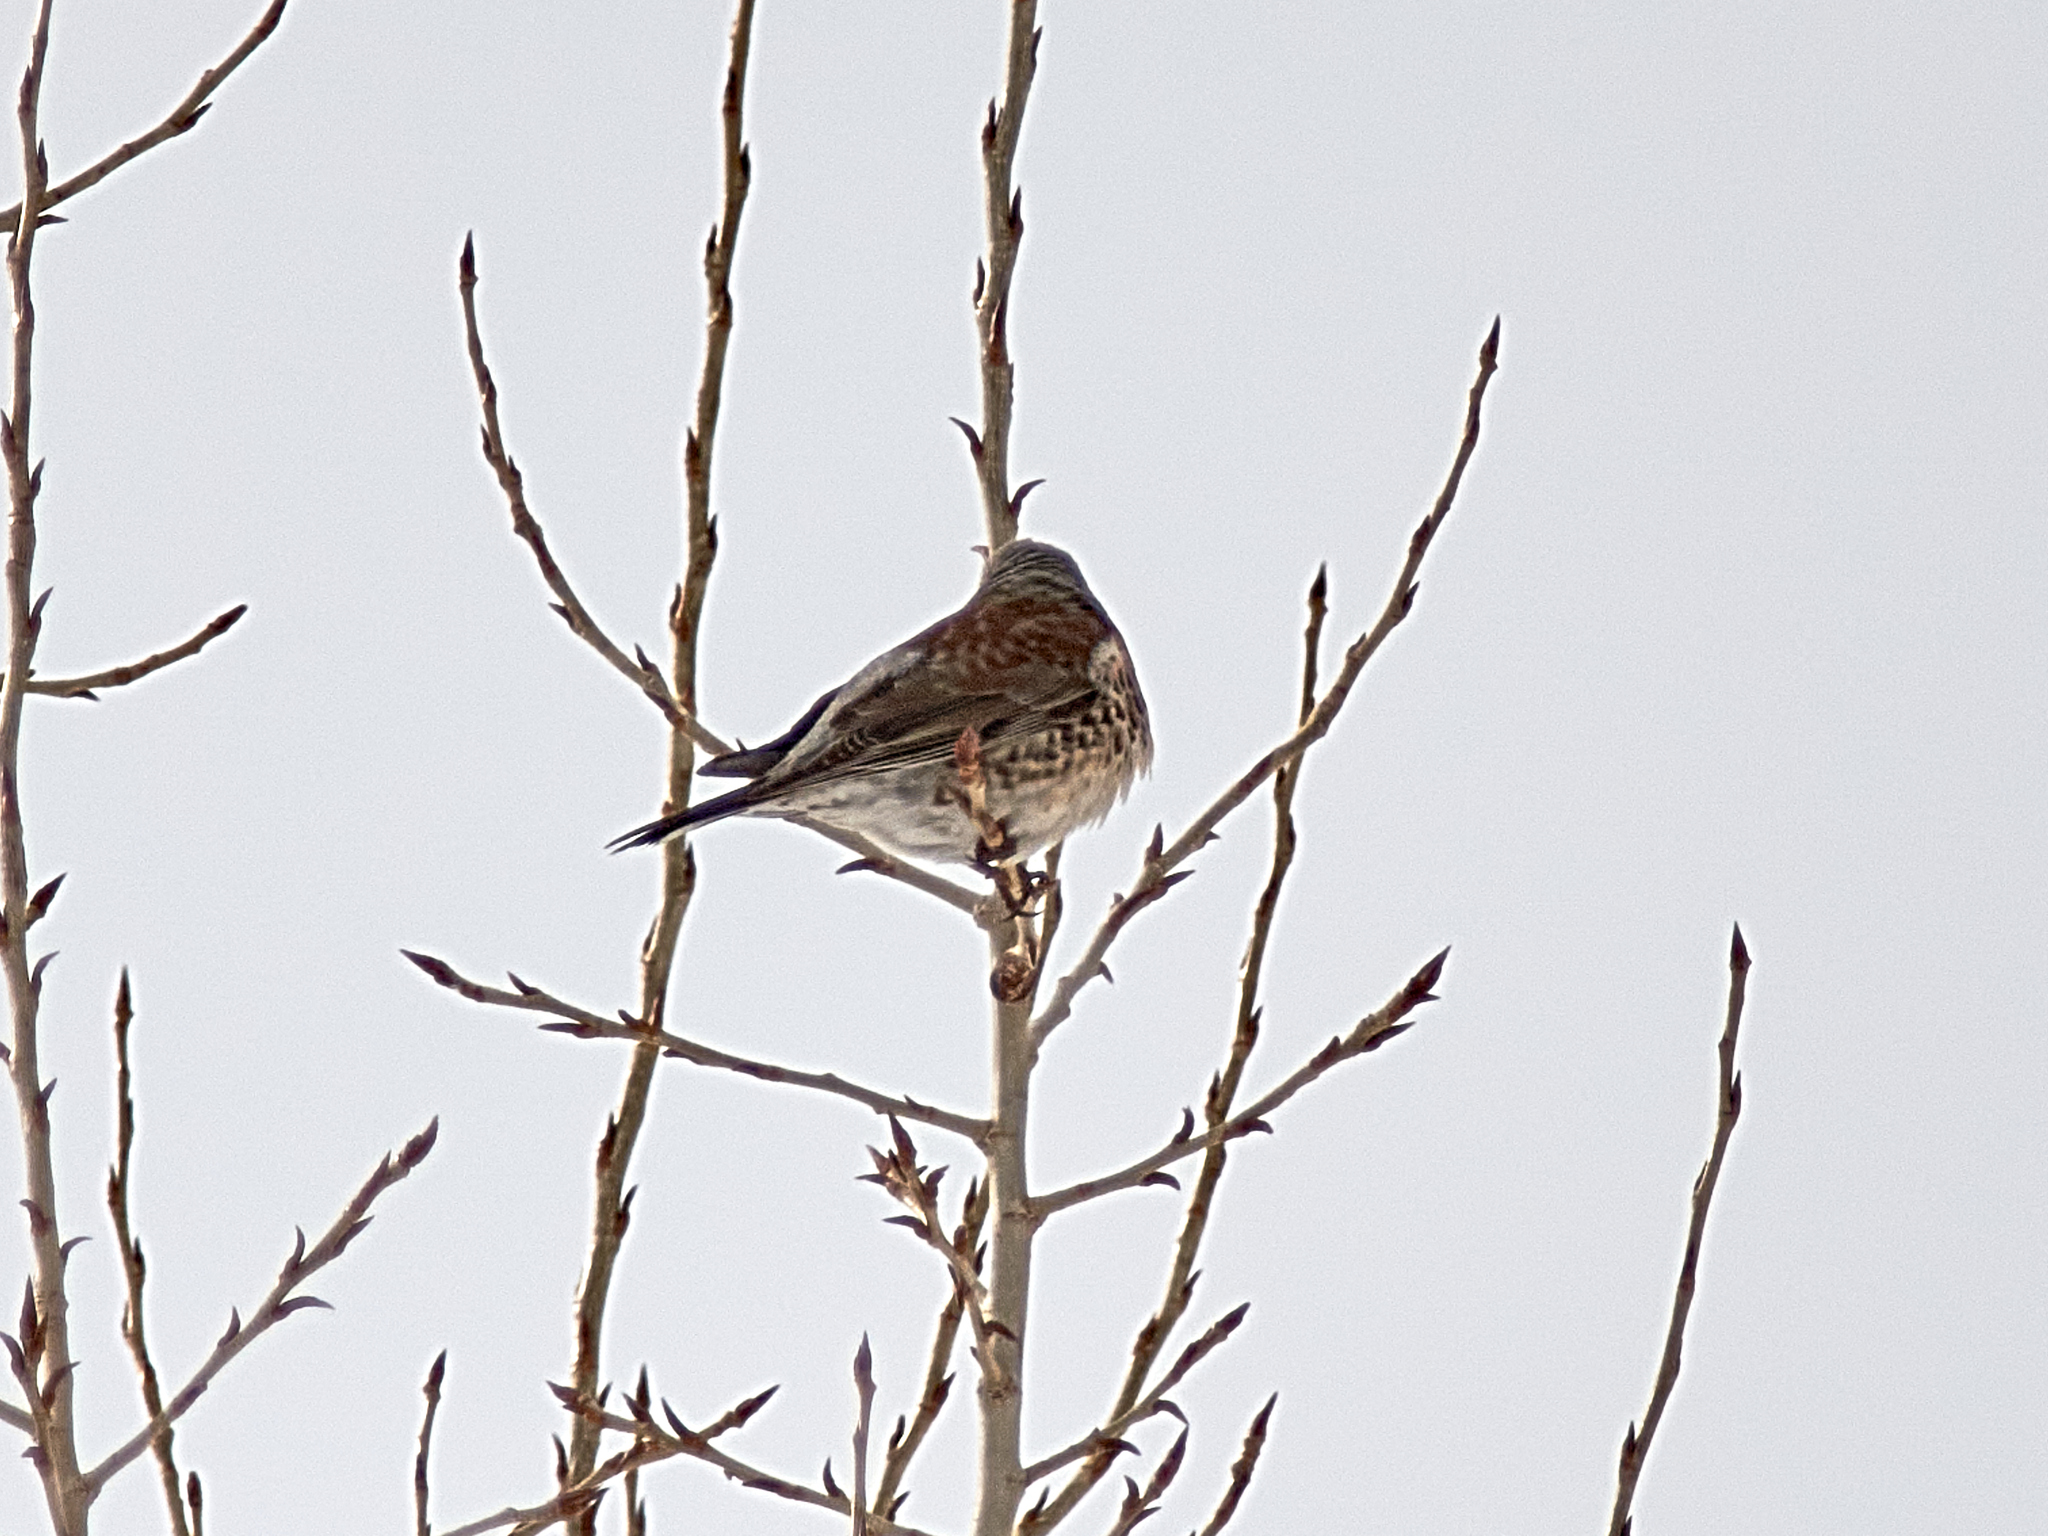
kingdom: Animalia
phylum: Chordata
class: Aves
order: Passeriformes
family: Turdidae
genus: Turdus
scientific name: Turdus pilaris
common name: Fieldfare
